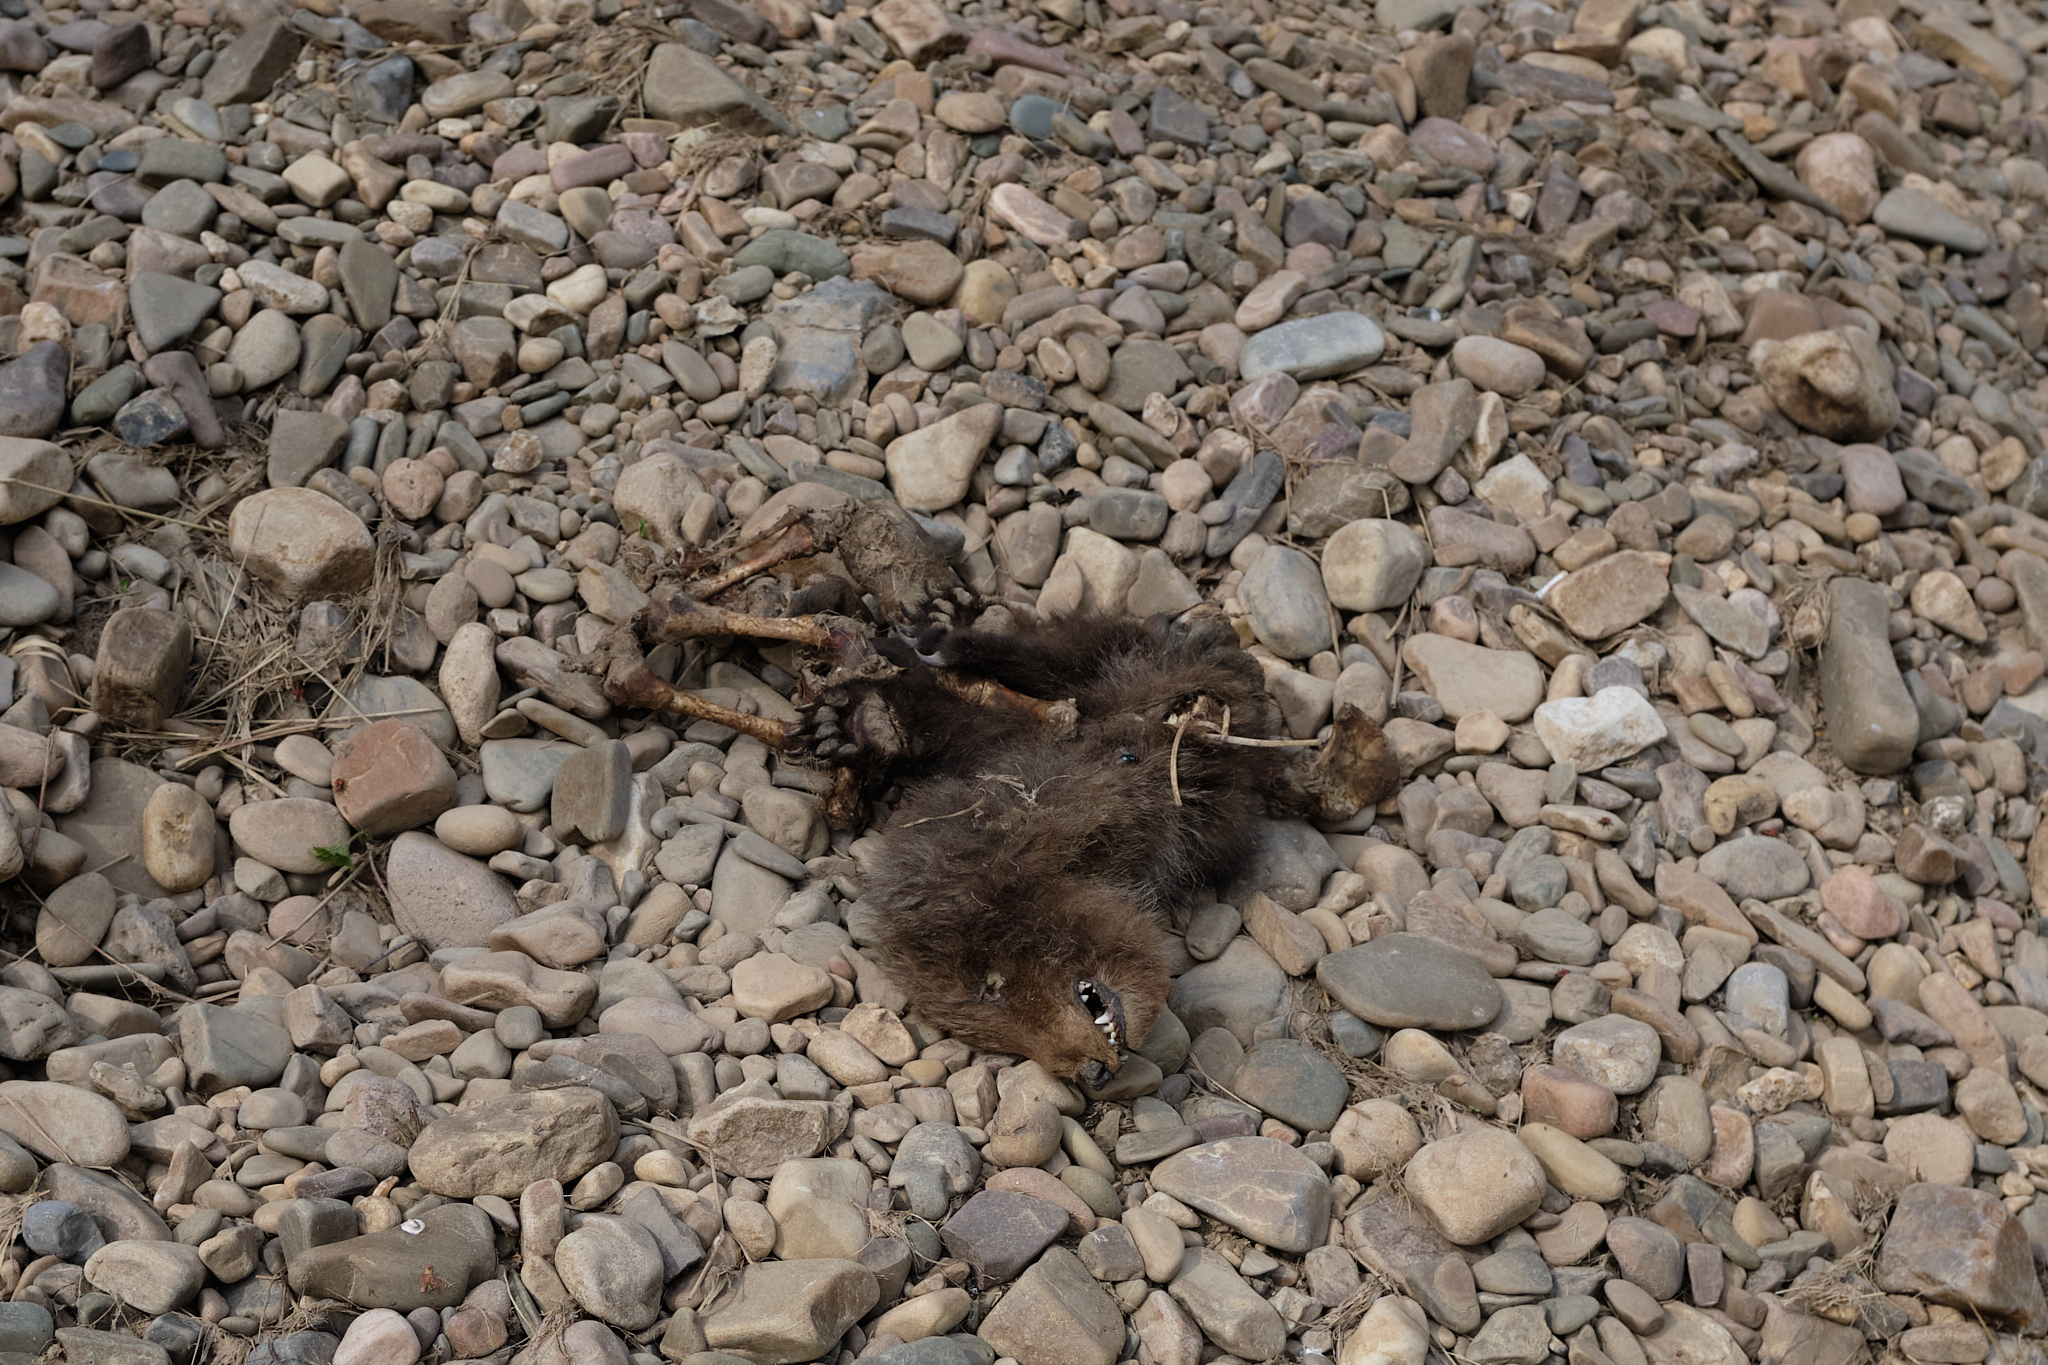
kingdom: Animalia
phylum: Chordata
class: Mammalia
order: Carnivora
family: Ursidae
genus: Ursus
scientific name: Ursus arctos
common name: Brown bear
